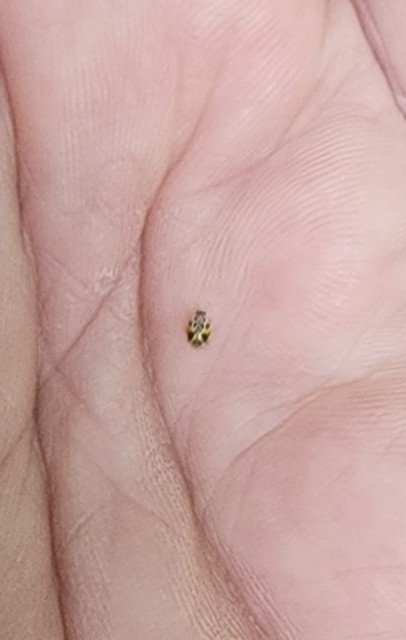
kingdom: Animalia
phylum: Arthropoda
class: Insecta
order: Coleoptera
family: Coccinellidae
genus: Psyllobora
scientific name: Psyllobora vigintimaculata
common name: Ladybird beetle
